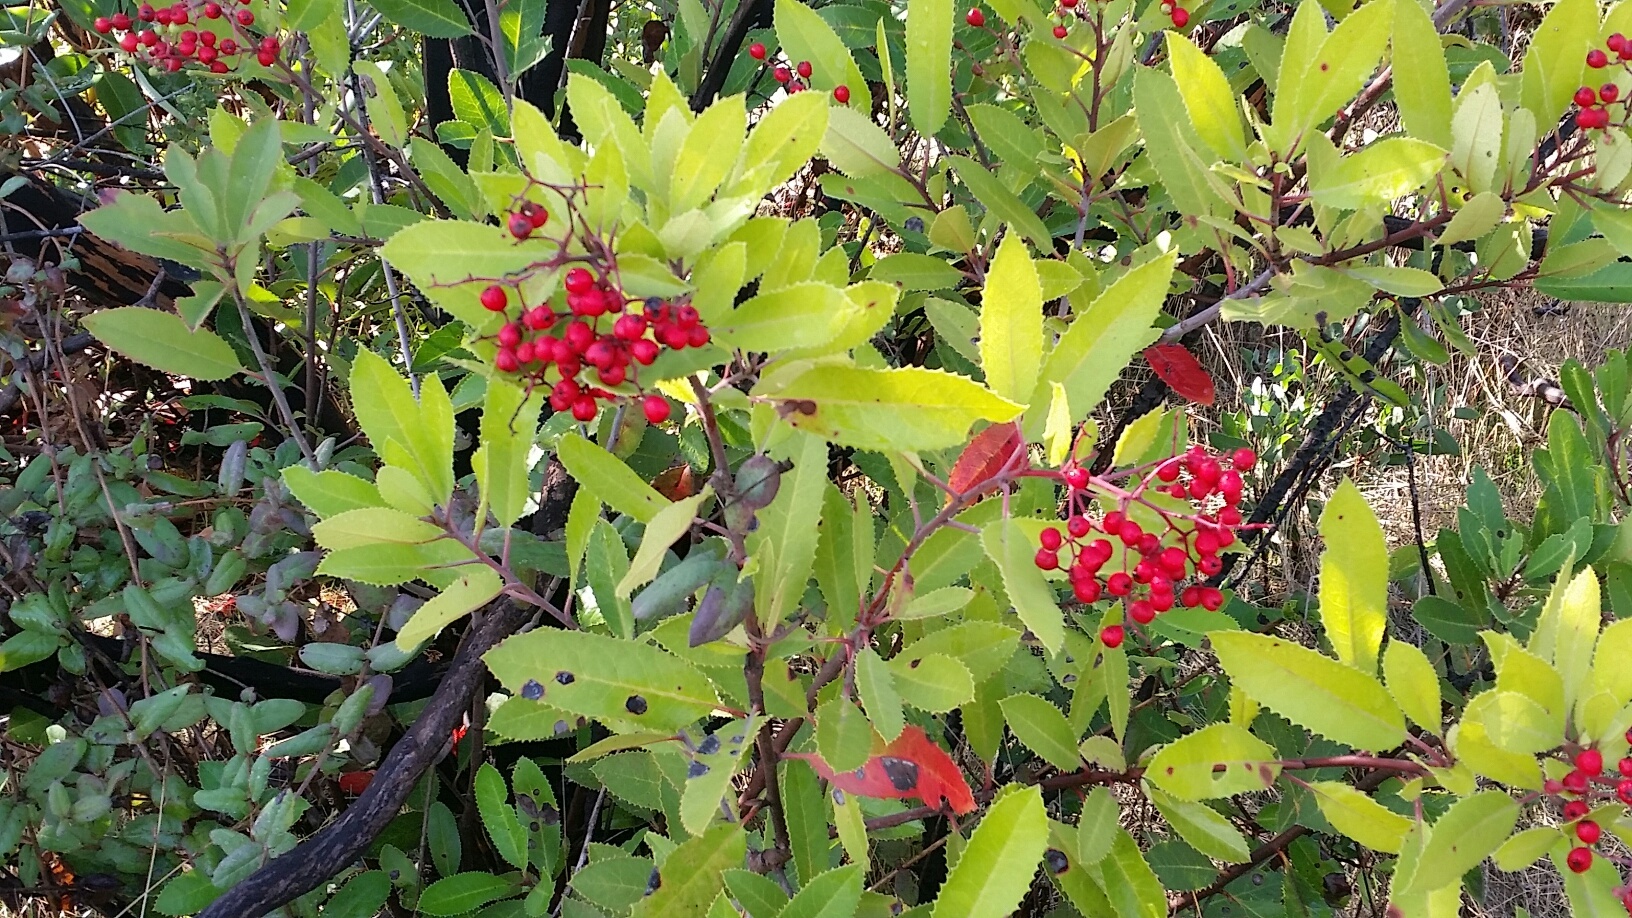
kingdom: Plantae
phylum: Tracheophyta
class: Magnoliopsida
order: Rosales
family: Rosaceae
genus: Heteromeles
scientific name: Heteromeles arbutifolia
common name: California-holly
